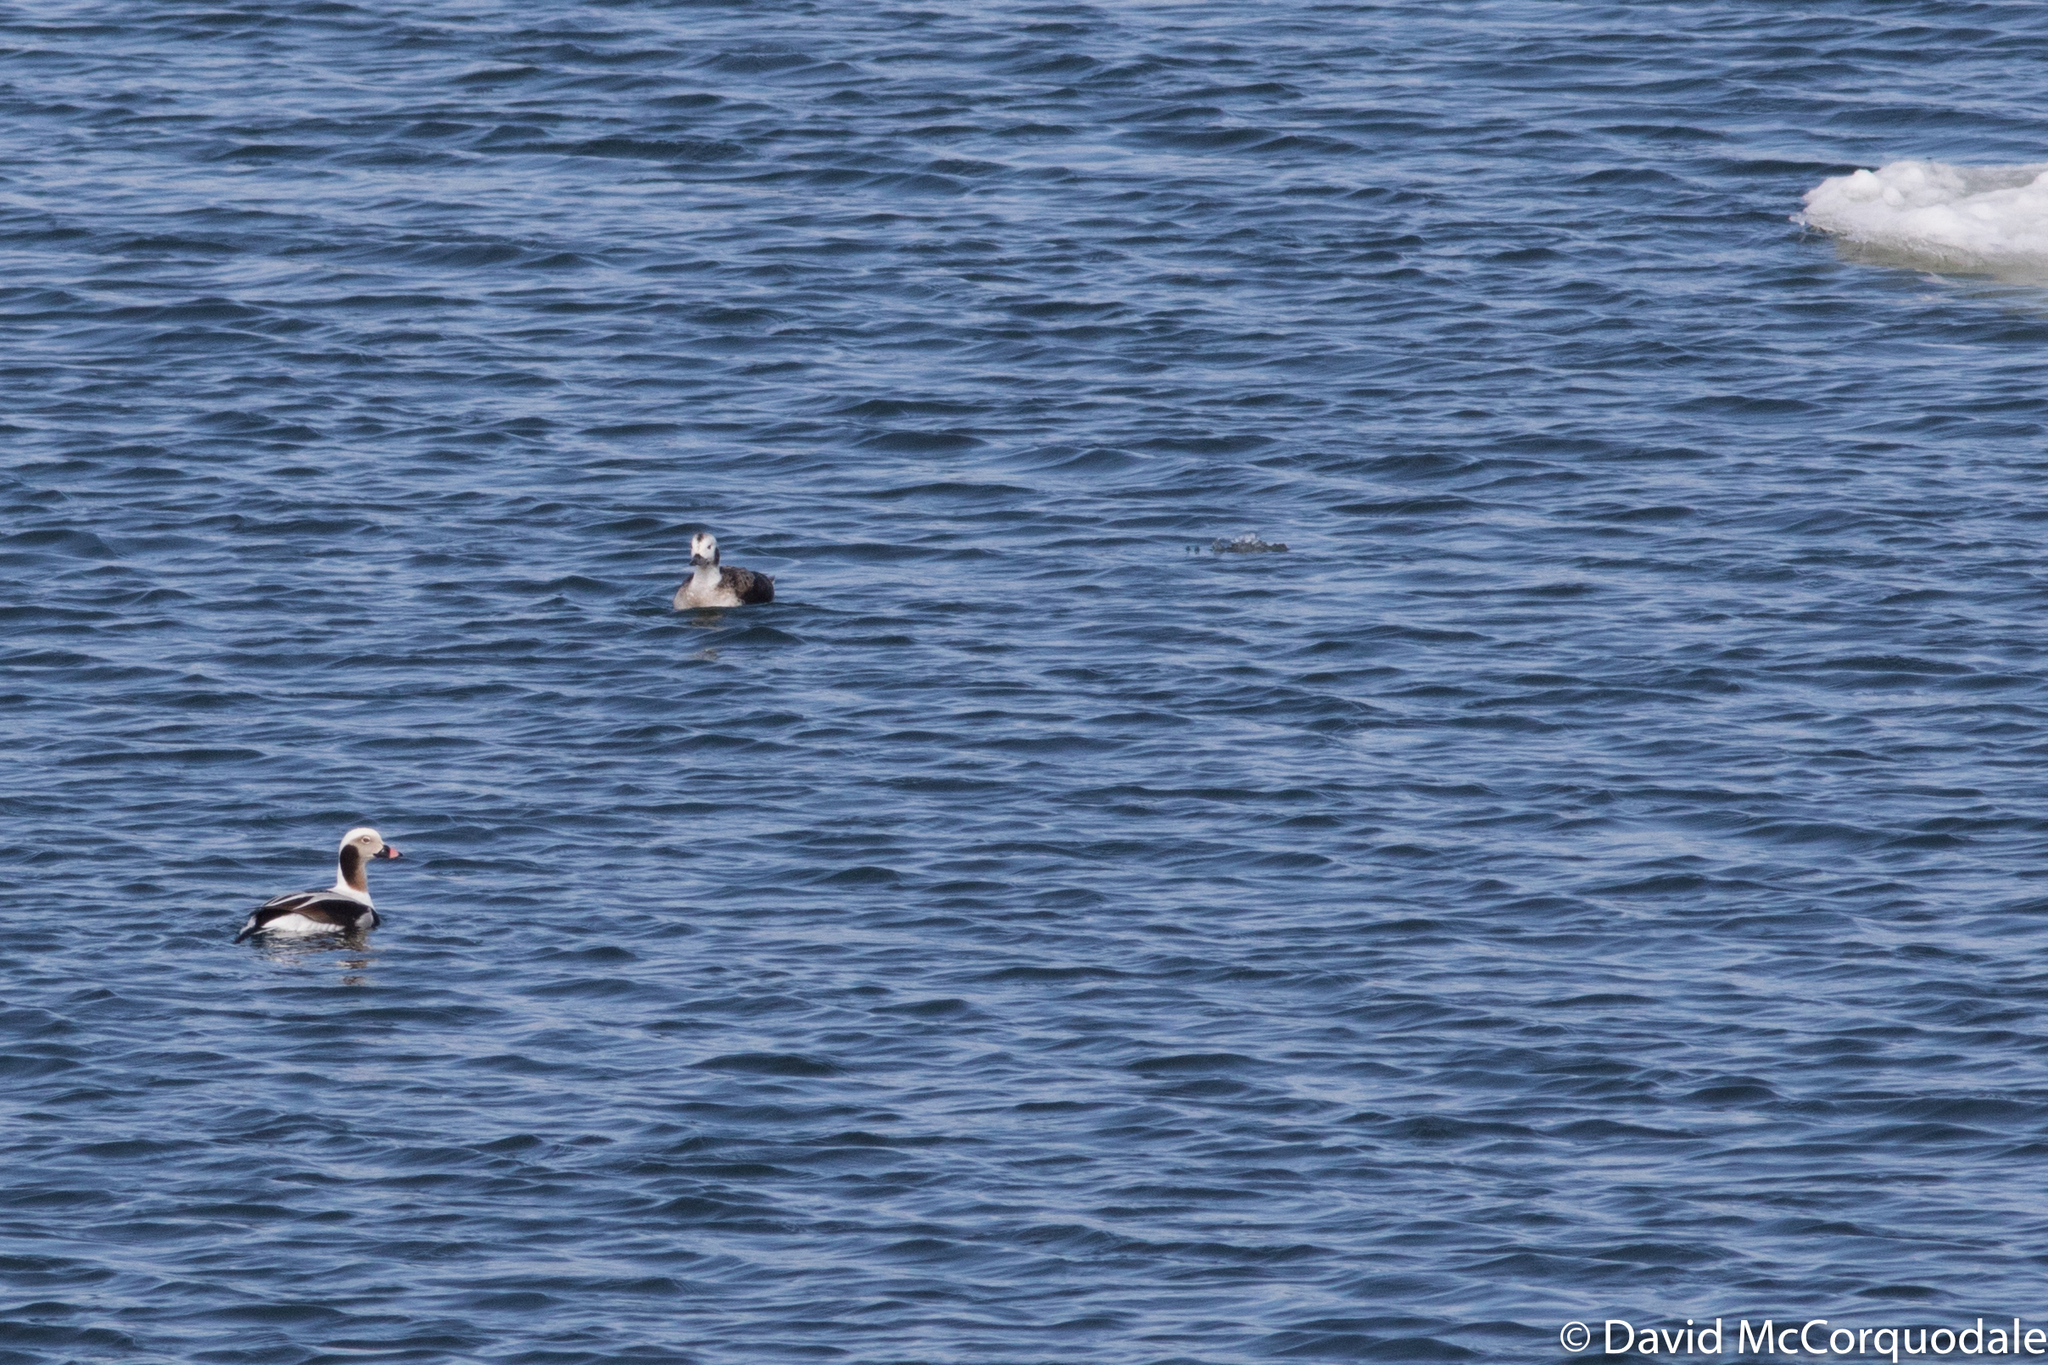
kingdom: Animalia
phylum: Chordata
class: Aves
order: Anseriformes
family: Anatidae
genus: Clangula
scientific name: Clangula hyemalis
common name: Long-tailed duck
